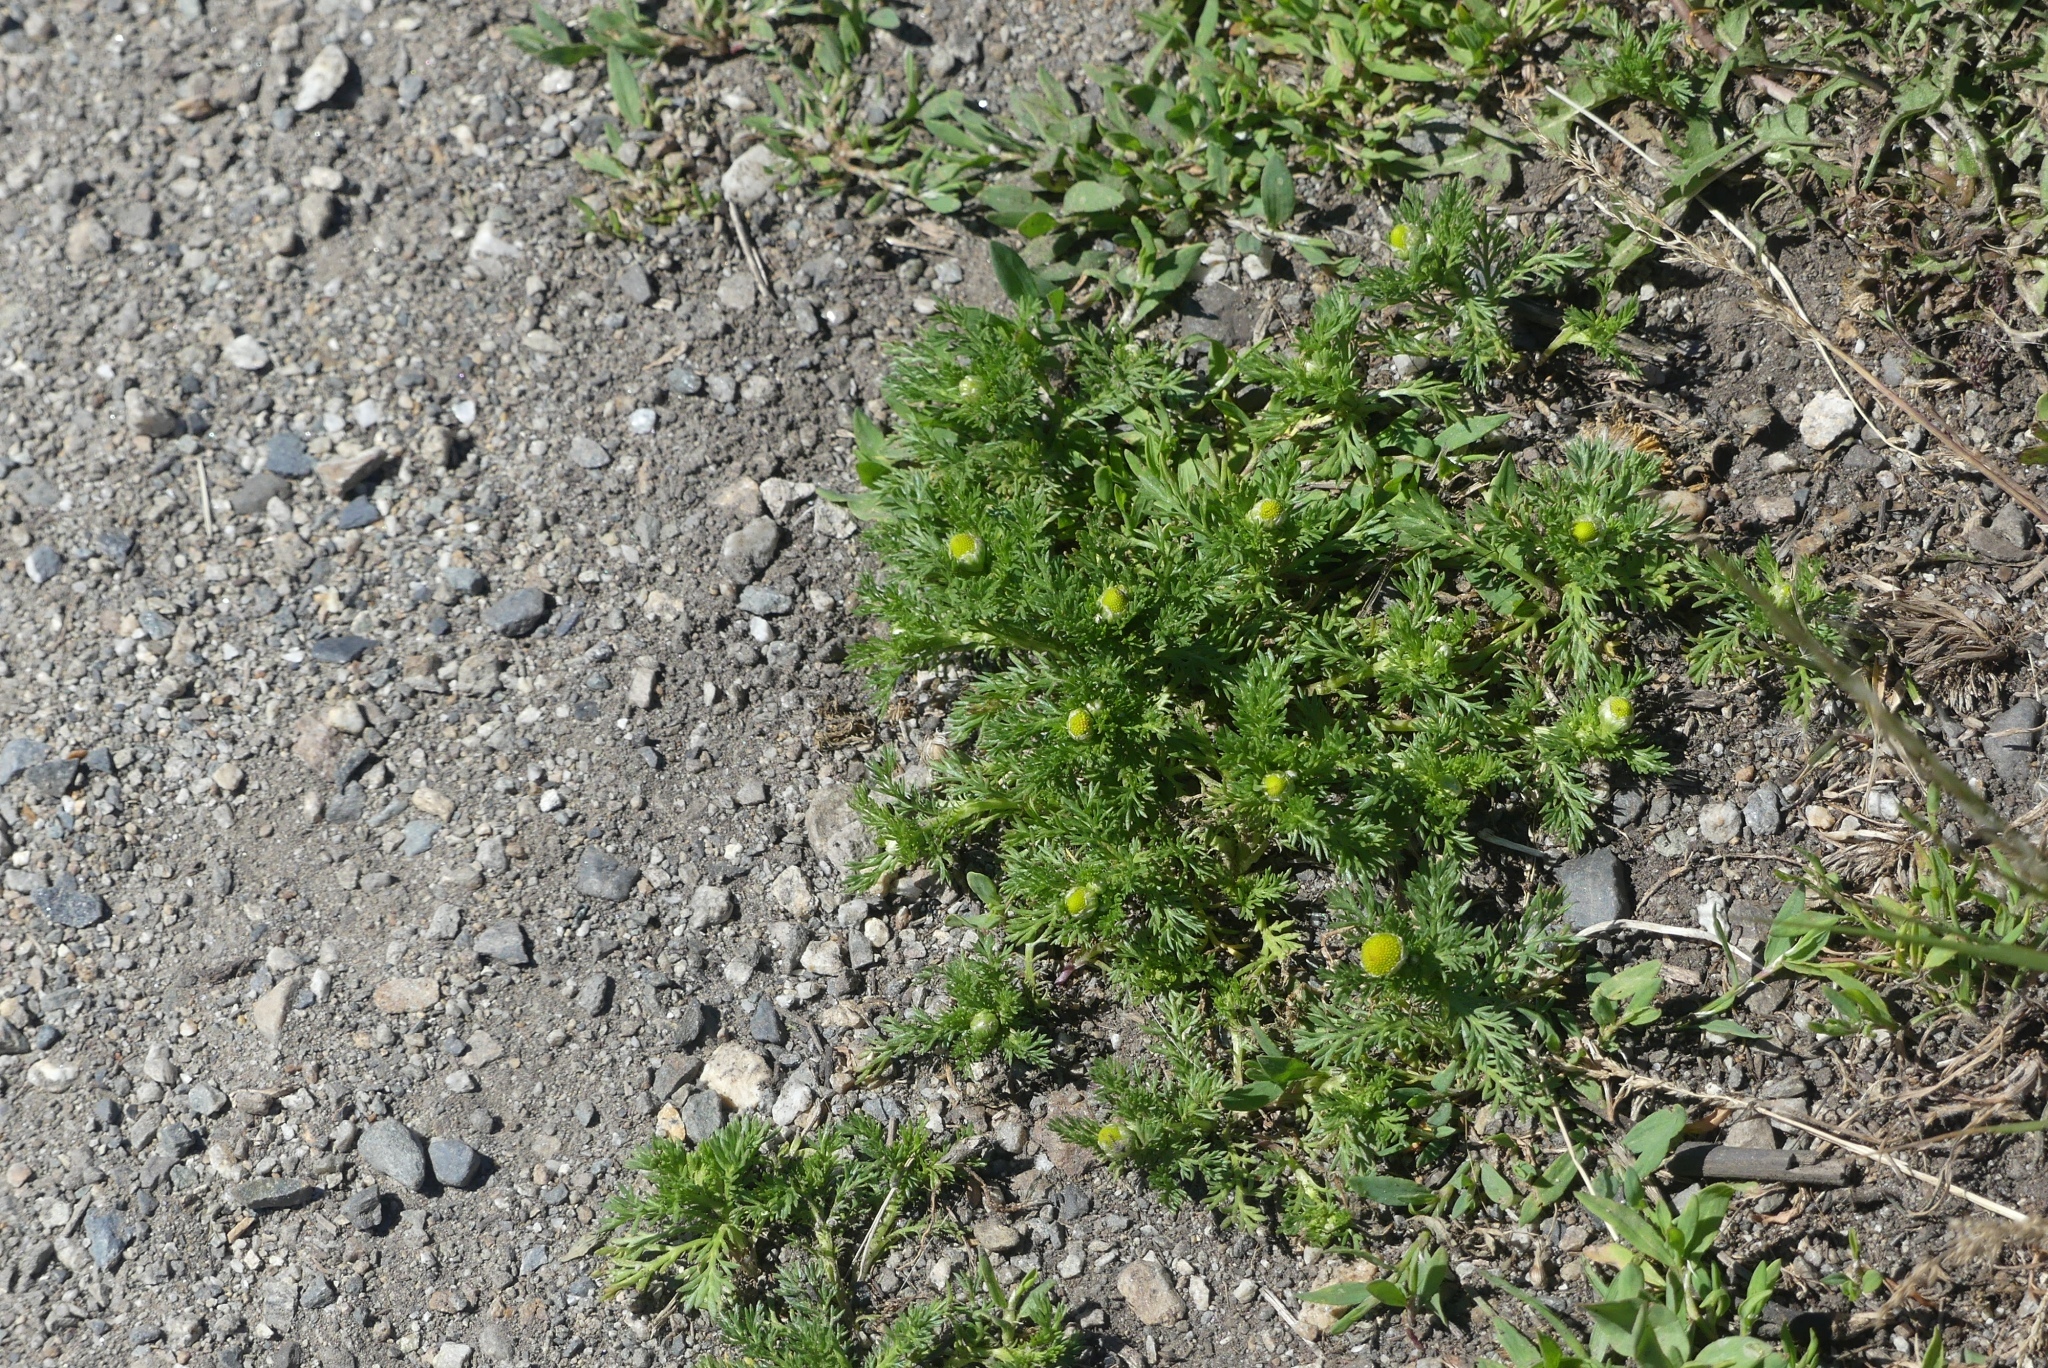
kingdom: Plantae
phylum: Tracheophyta
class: Magnoliopsida
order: Asterales
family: Asteraceae
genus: Matricaria
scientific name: Matricaria discoidea
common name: Disc mayweed
